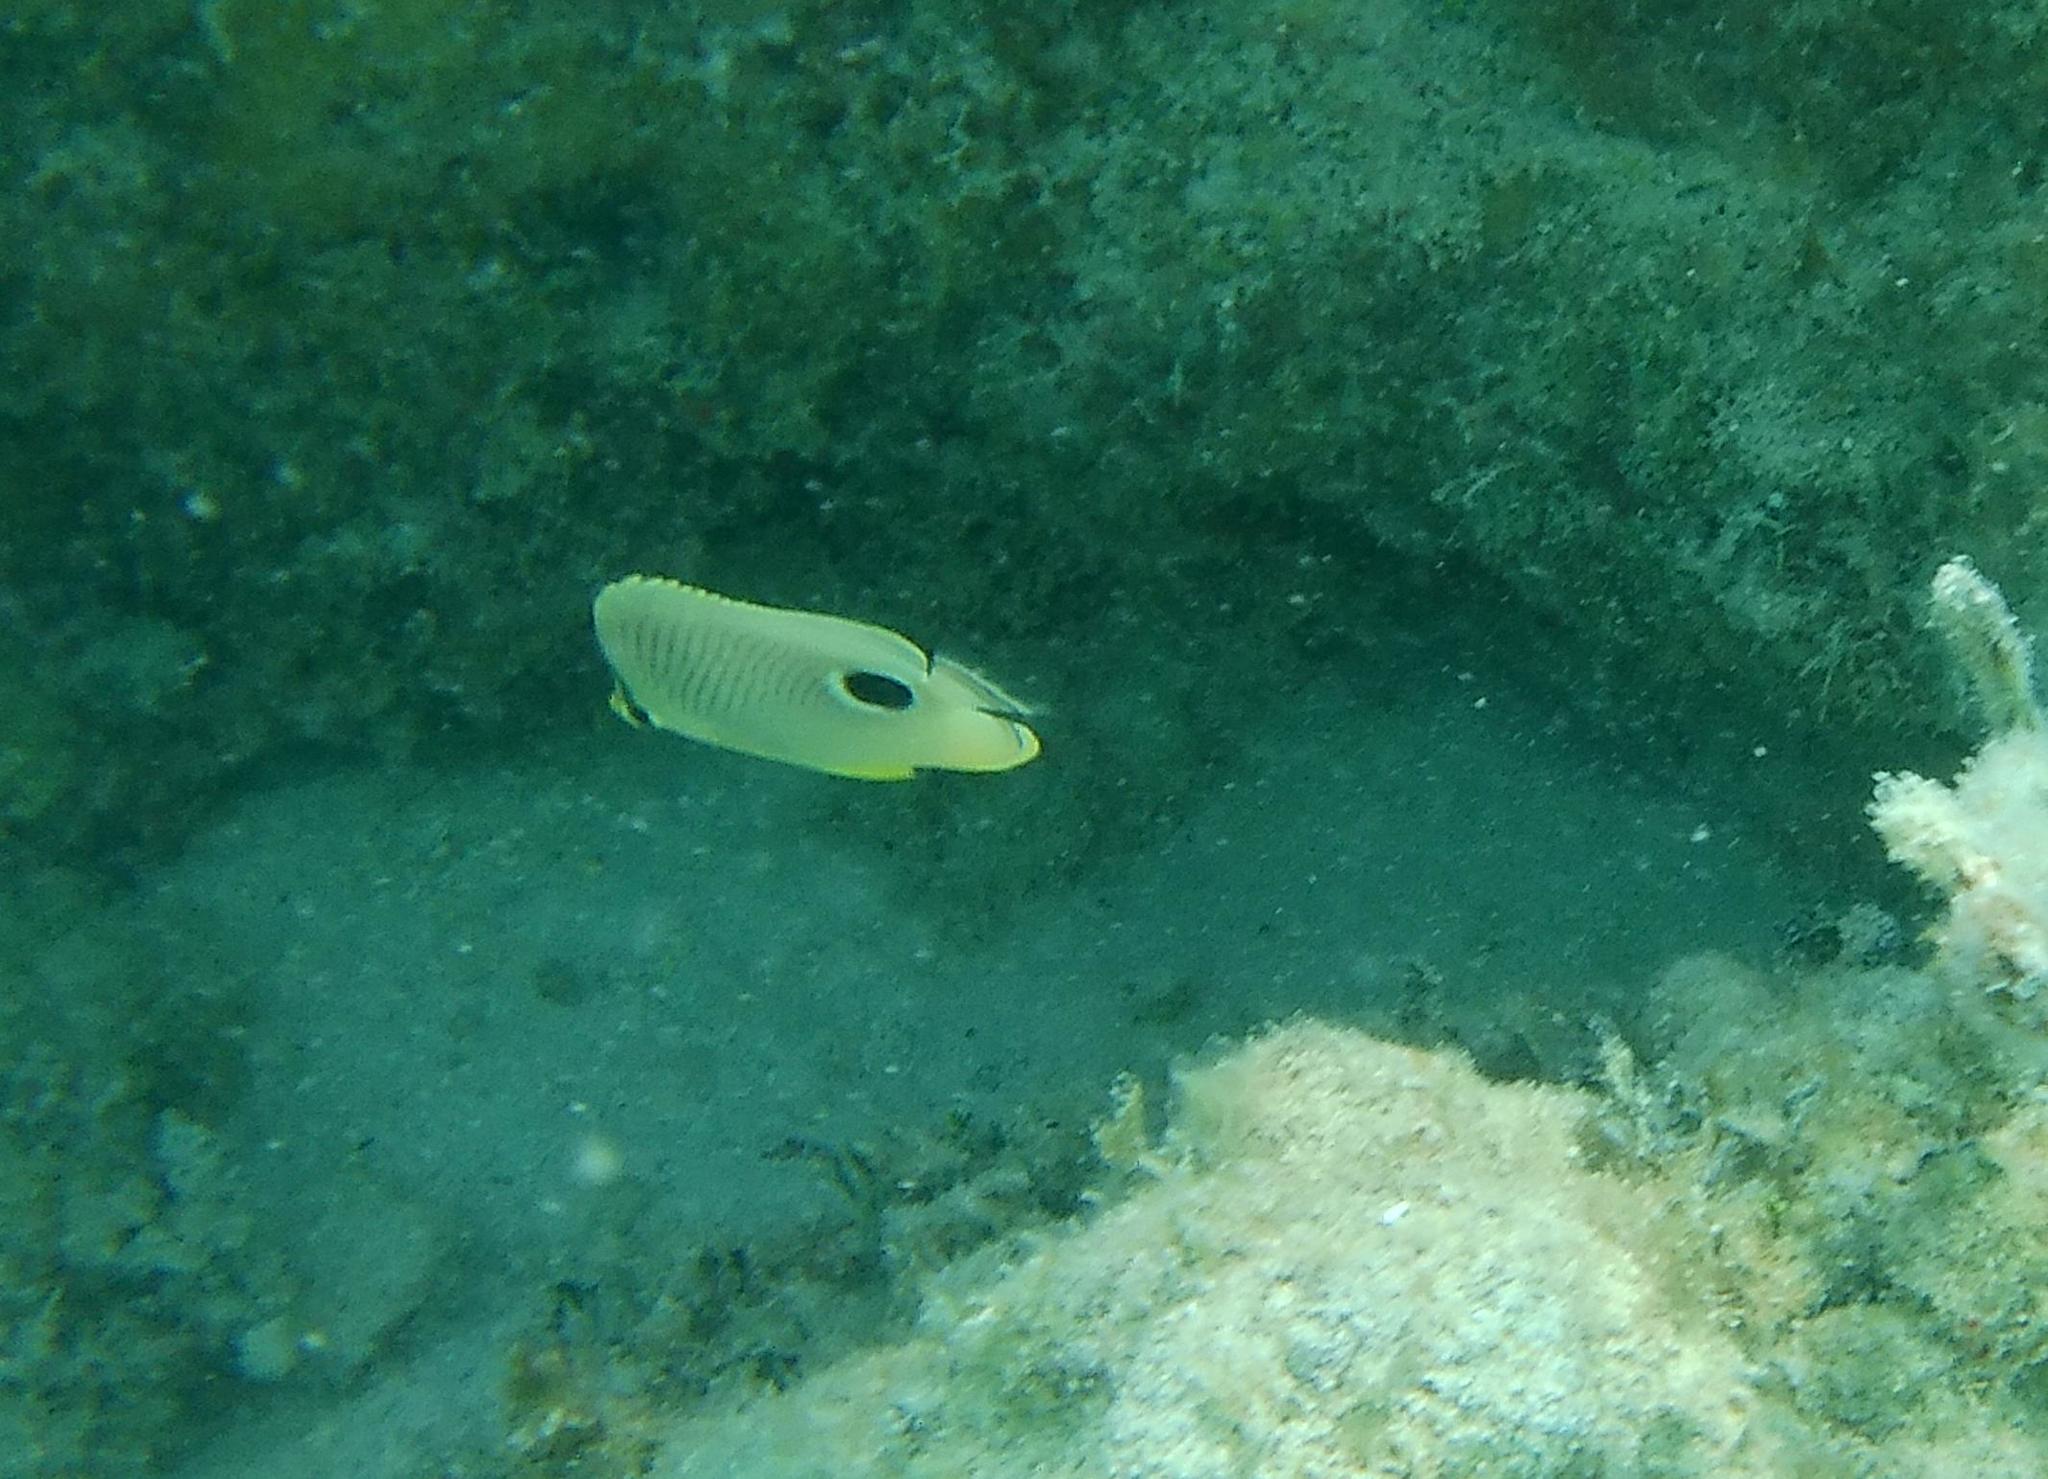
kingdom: Animalia
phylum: Chordata
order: Perciformes
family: Chaetodontidae
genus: Chaetodon
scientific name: Chaetodon capistratus
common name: Kete
